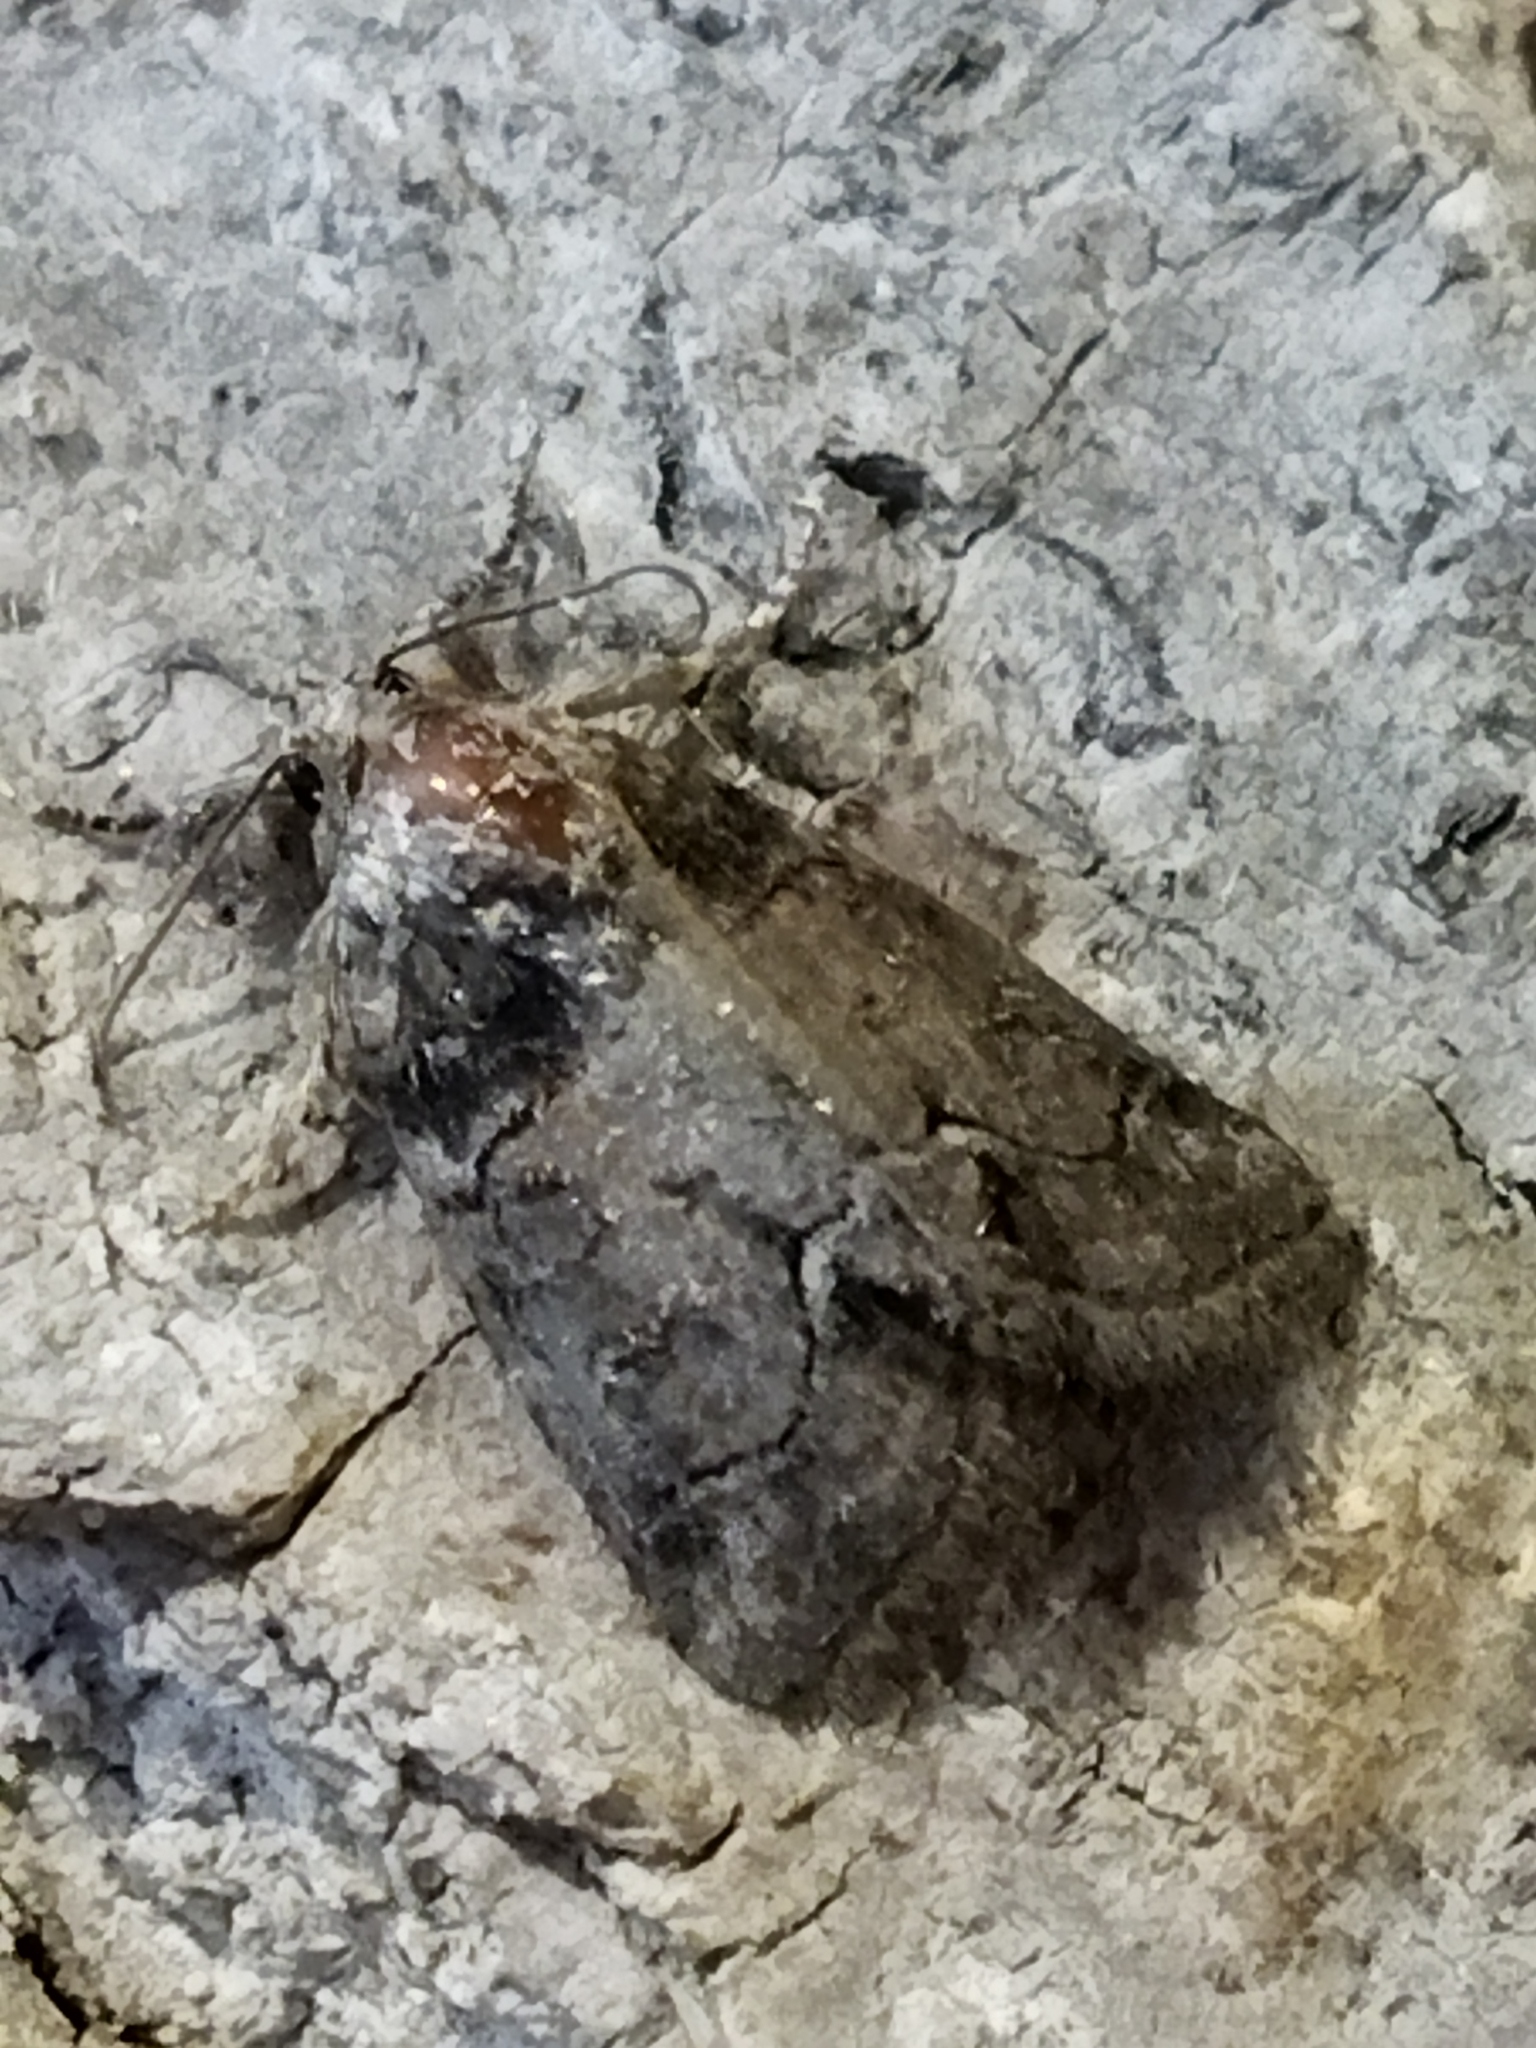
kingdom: Animalia
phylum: Arthropoda
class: Insecta
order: Lepidoptera
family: Noctuidae
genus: Bryophila
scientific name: Bryophila tephrocharis
